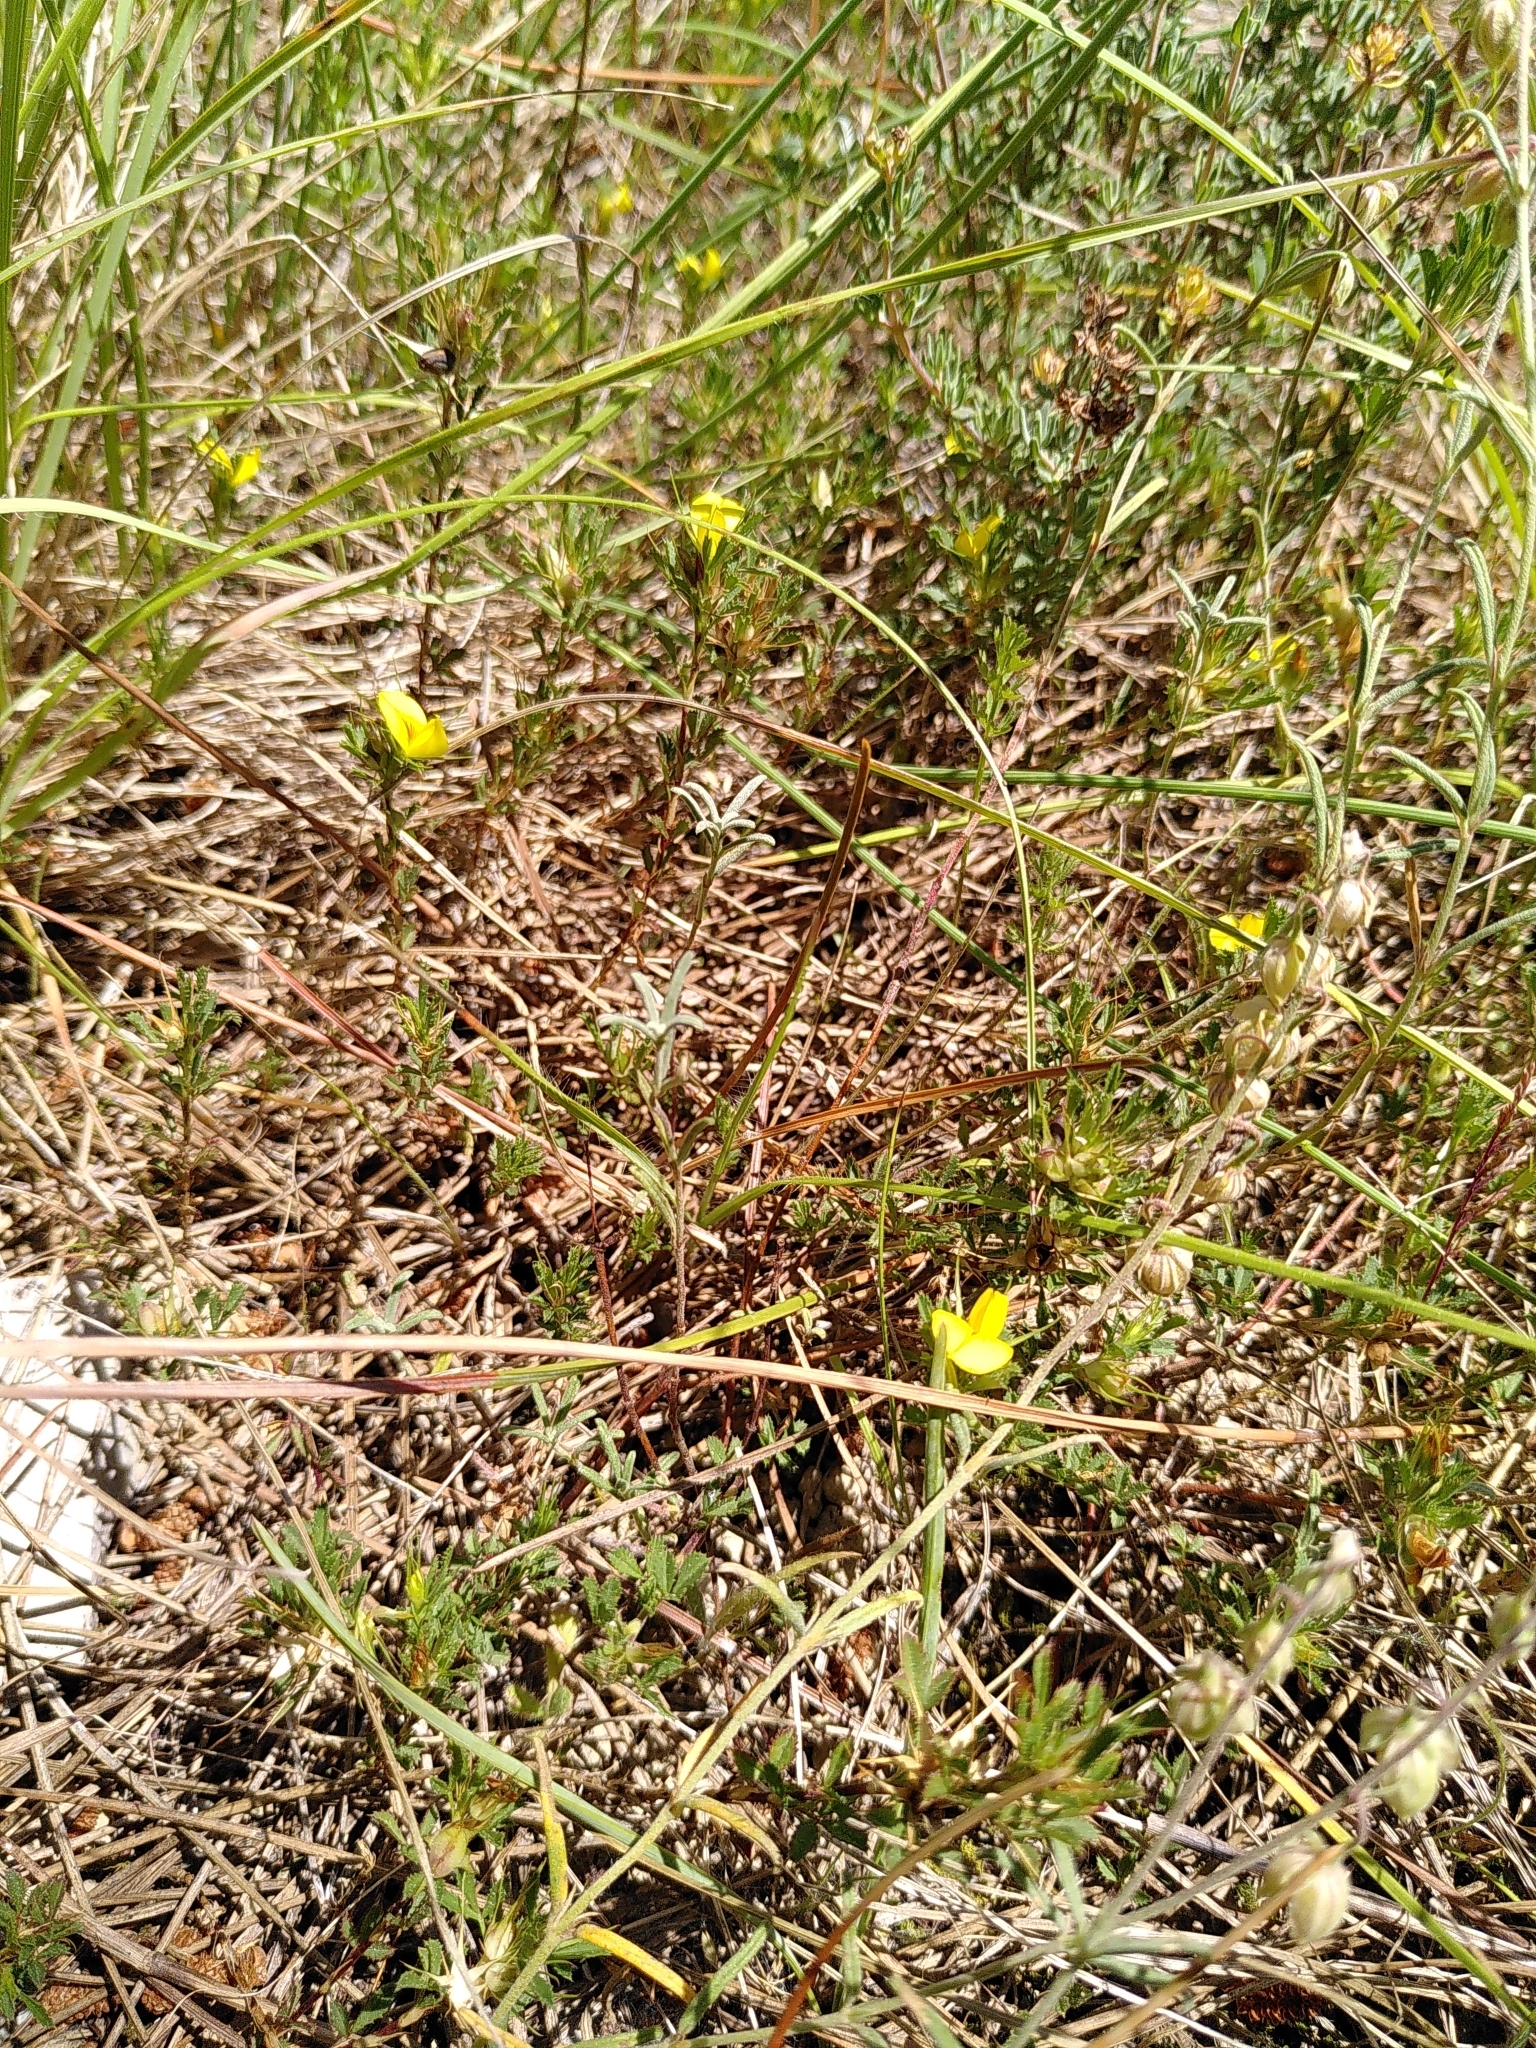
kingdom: Plantae
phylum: Tracheophyta
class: Magnoliopsida
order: Fabales
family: Fabaceae
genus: Ononis
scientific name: Ononis minutissima
